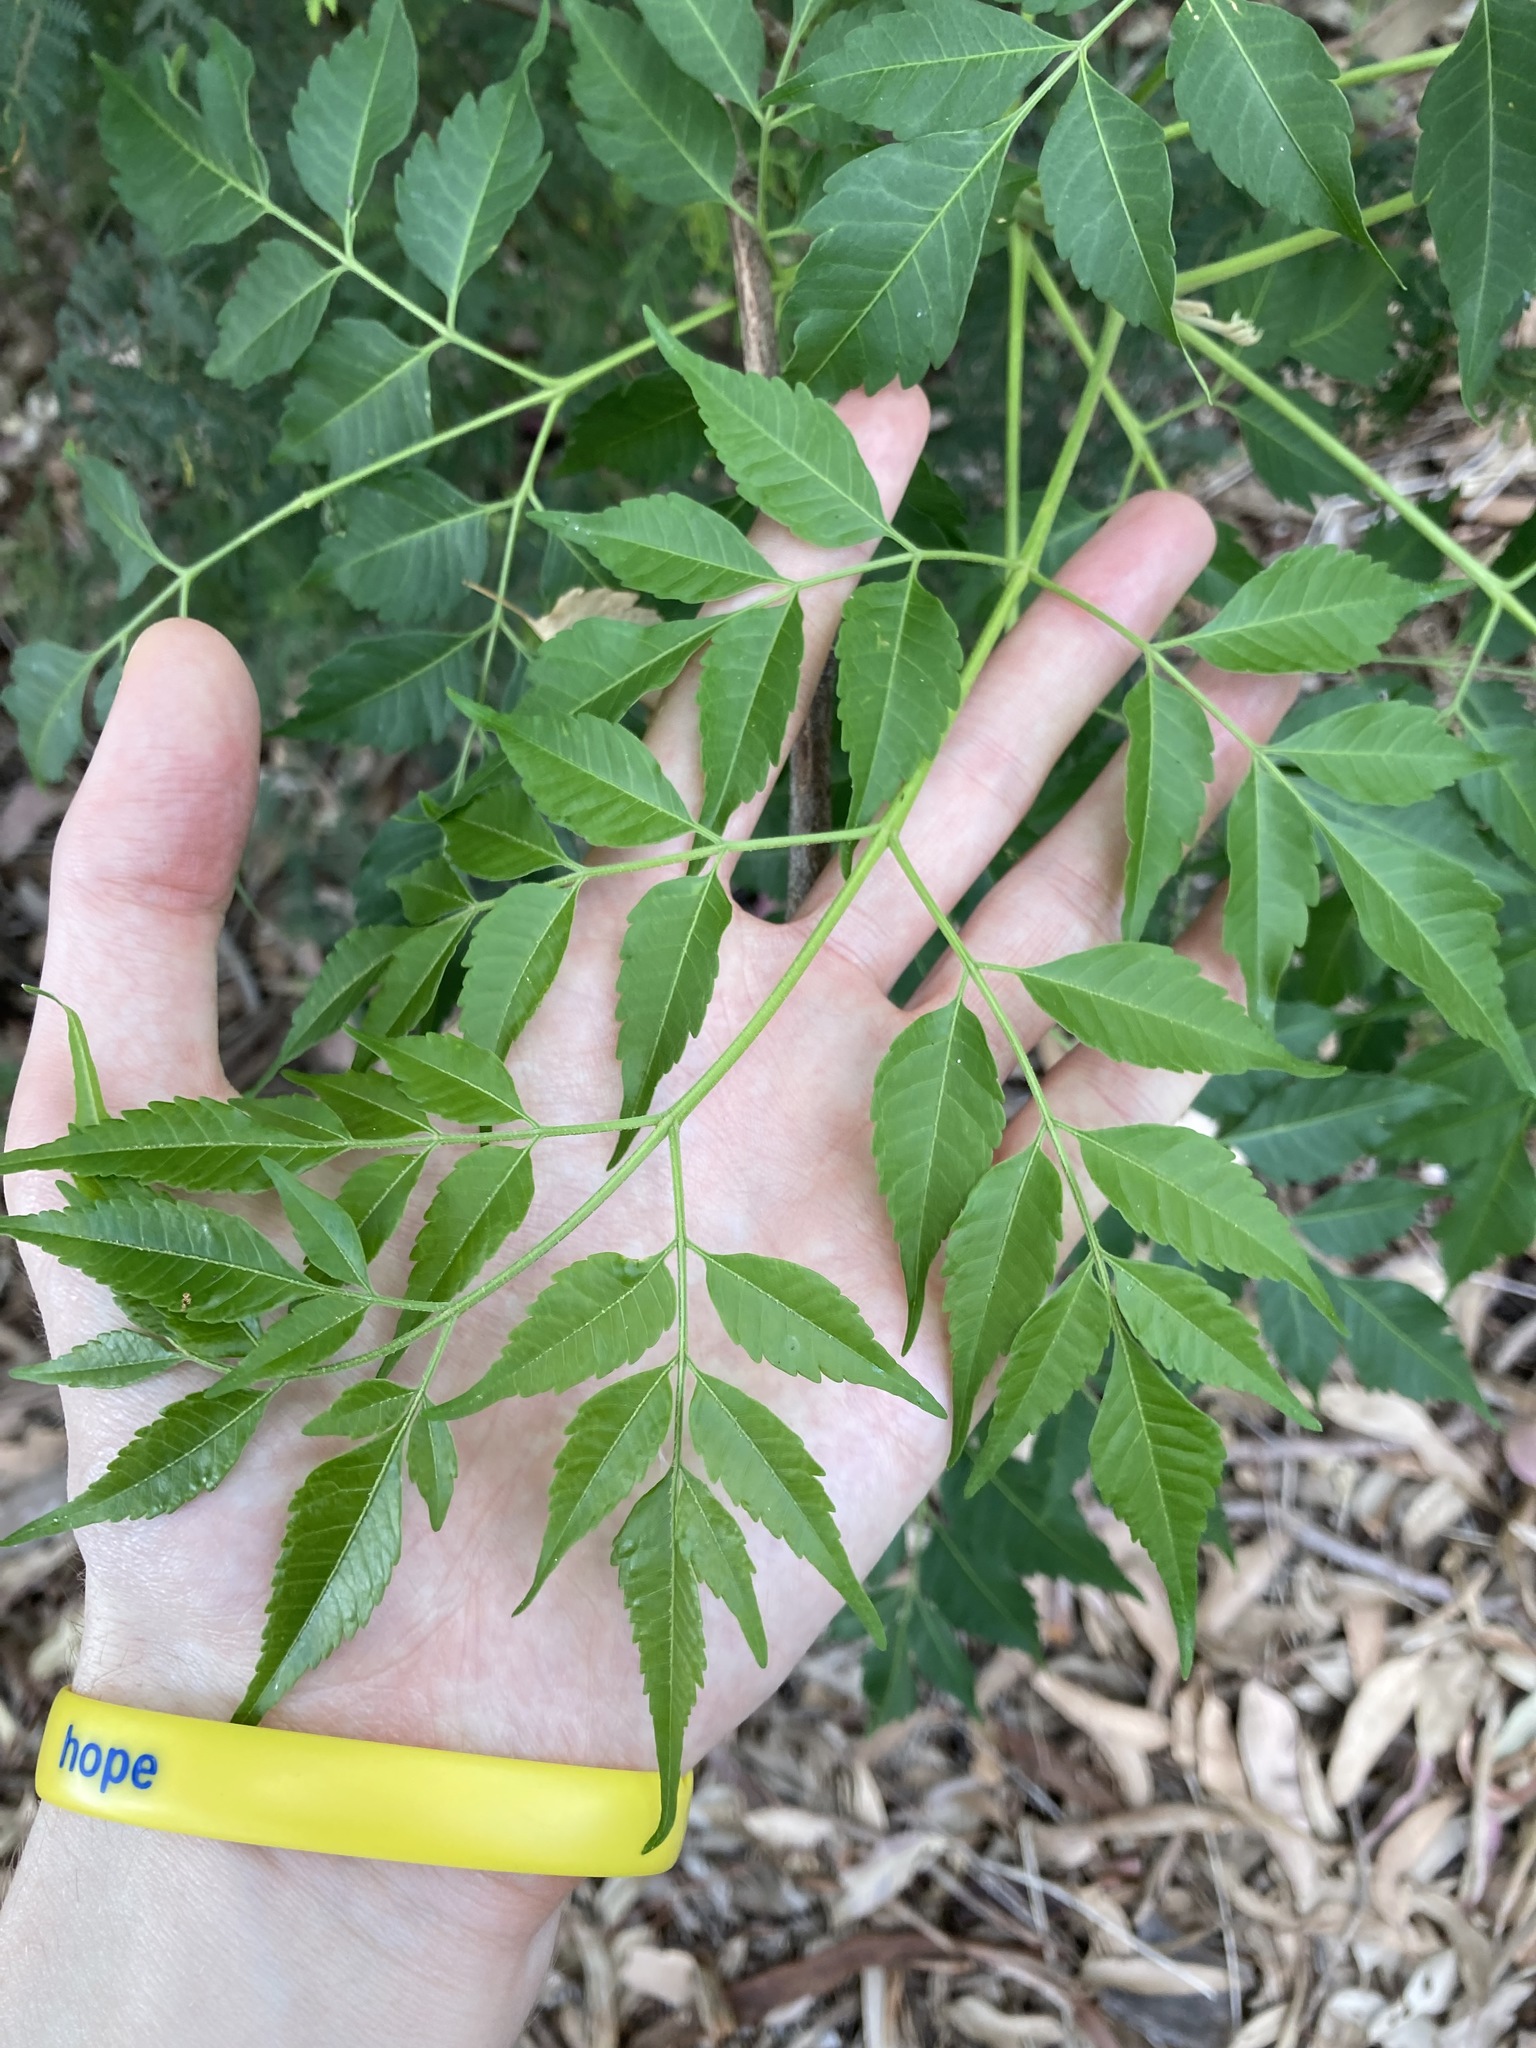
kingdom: Plantae
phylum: Tracheophyta
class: Magnoliopsida
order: Sapindales
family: Meliaceae
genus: Melia
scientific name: Melia azedarach
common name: Chinaberrytree
